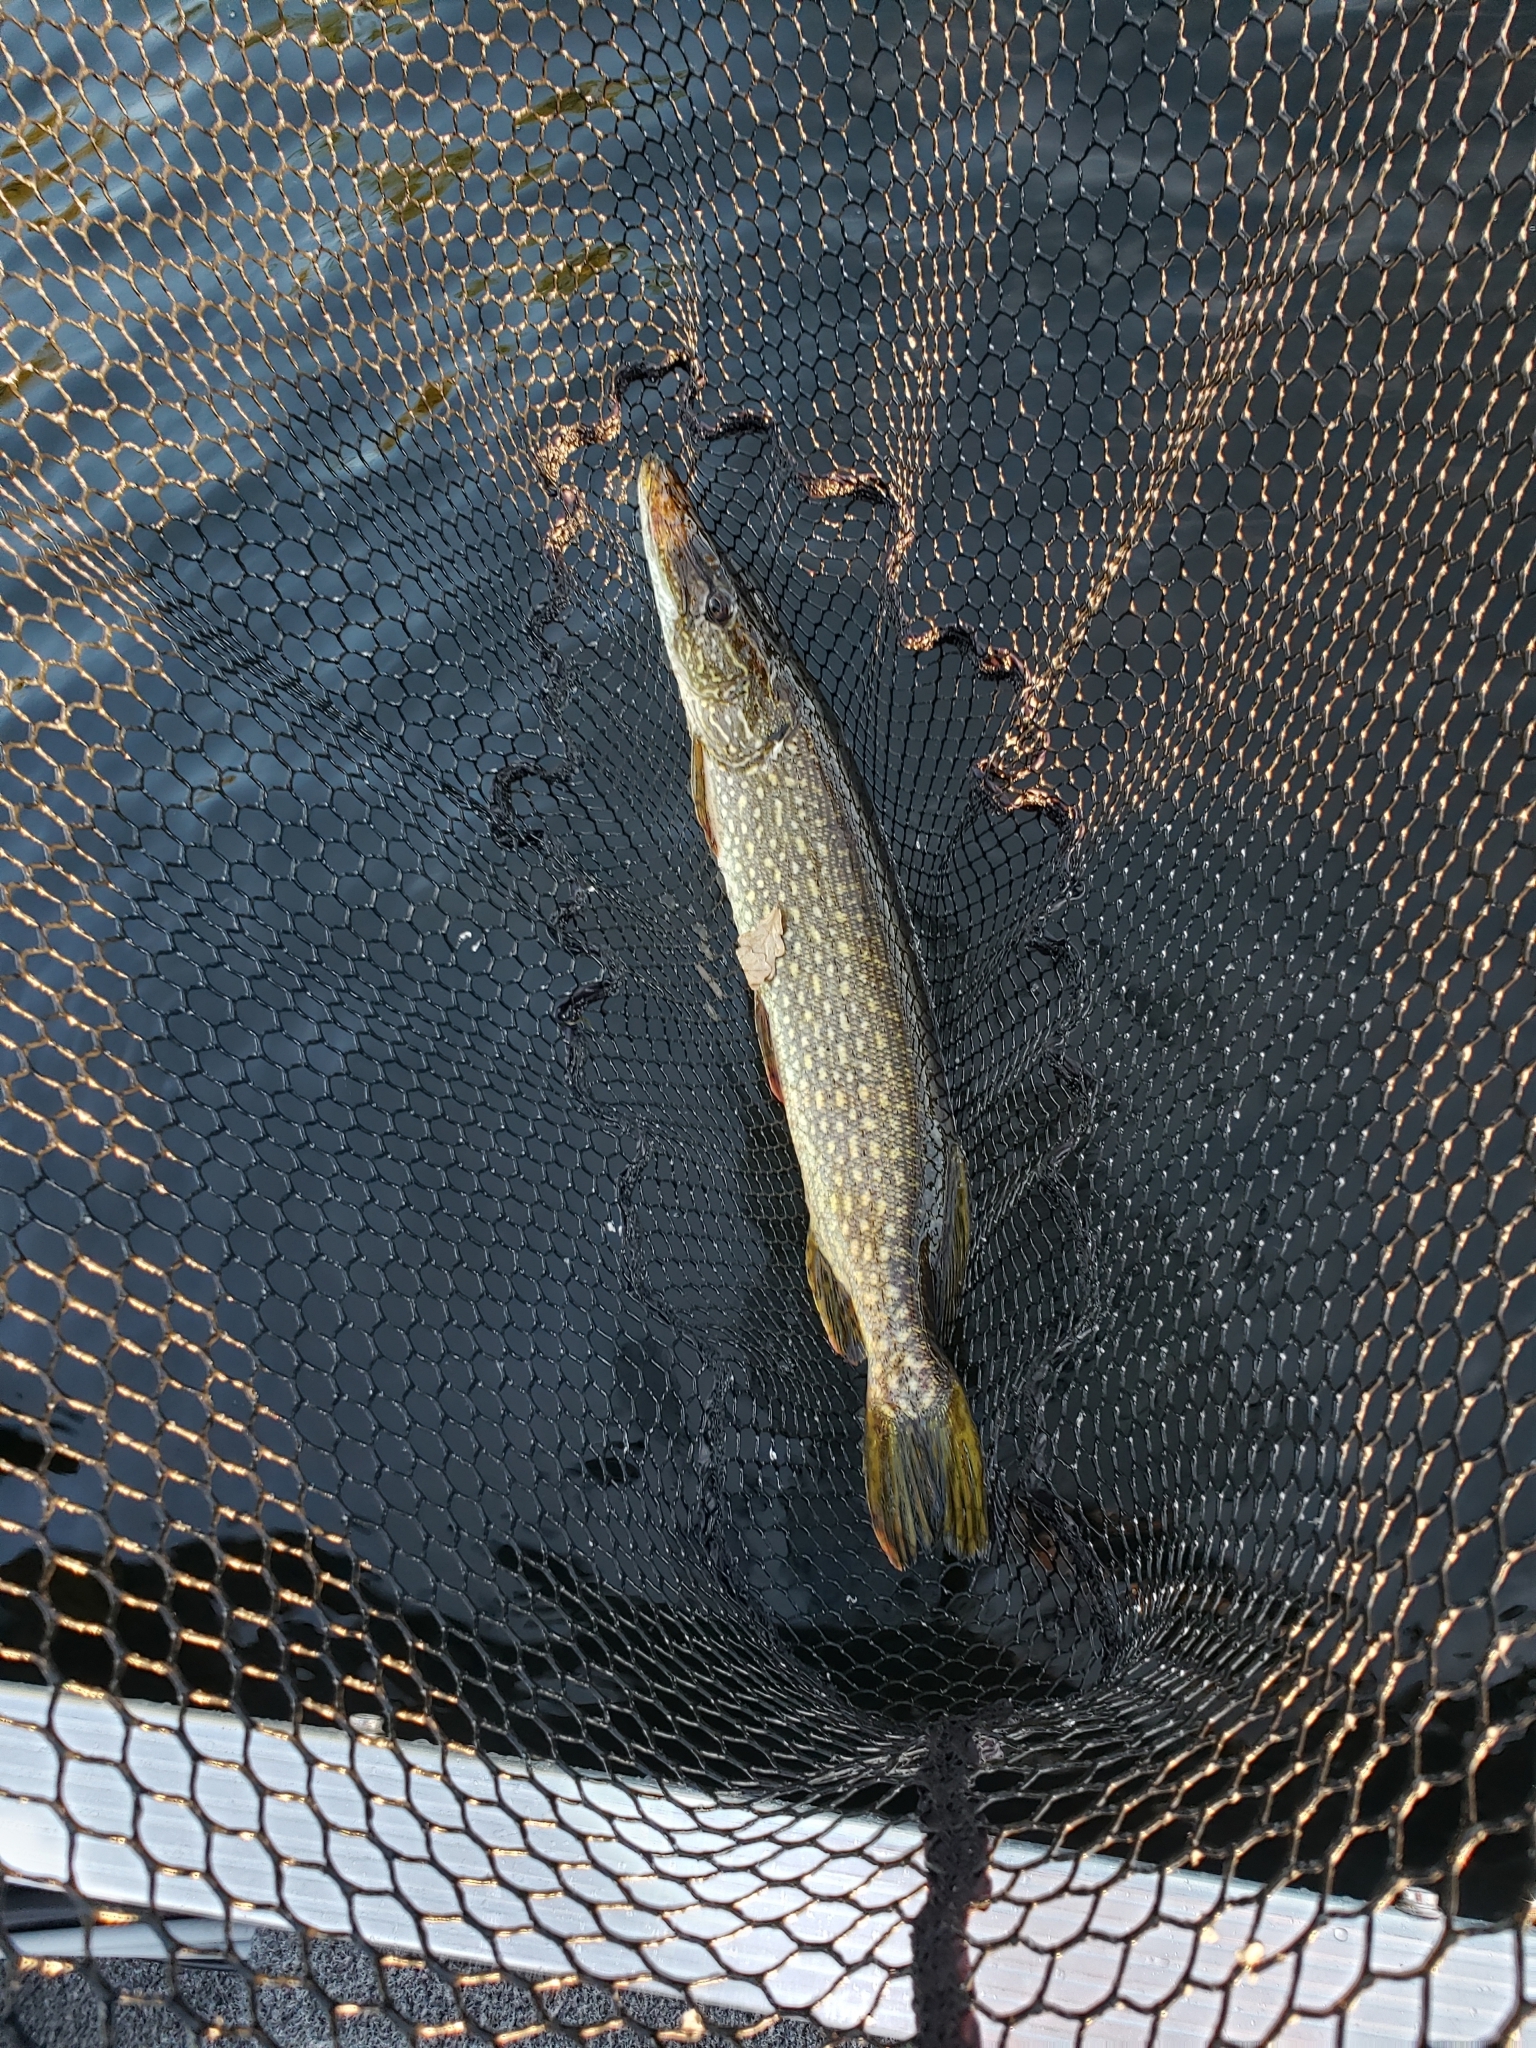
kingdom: Animalia
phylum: Chordata
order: Esociformes
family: Esocidae
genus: Esox
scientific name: Esox lucius
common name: Northern pike
